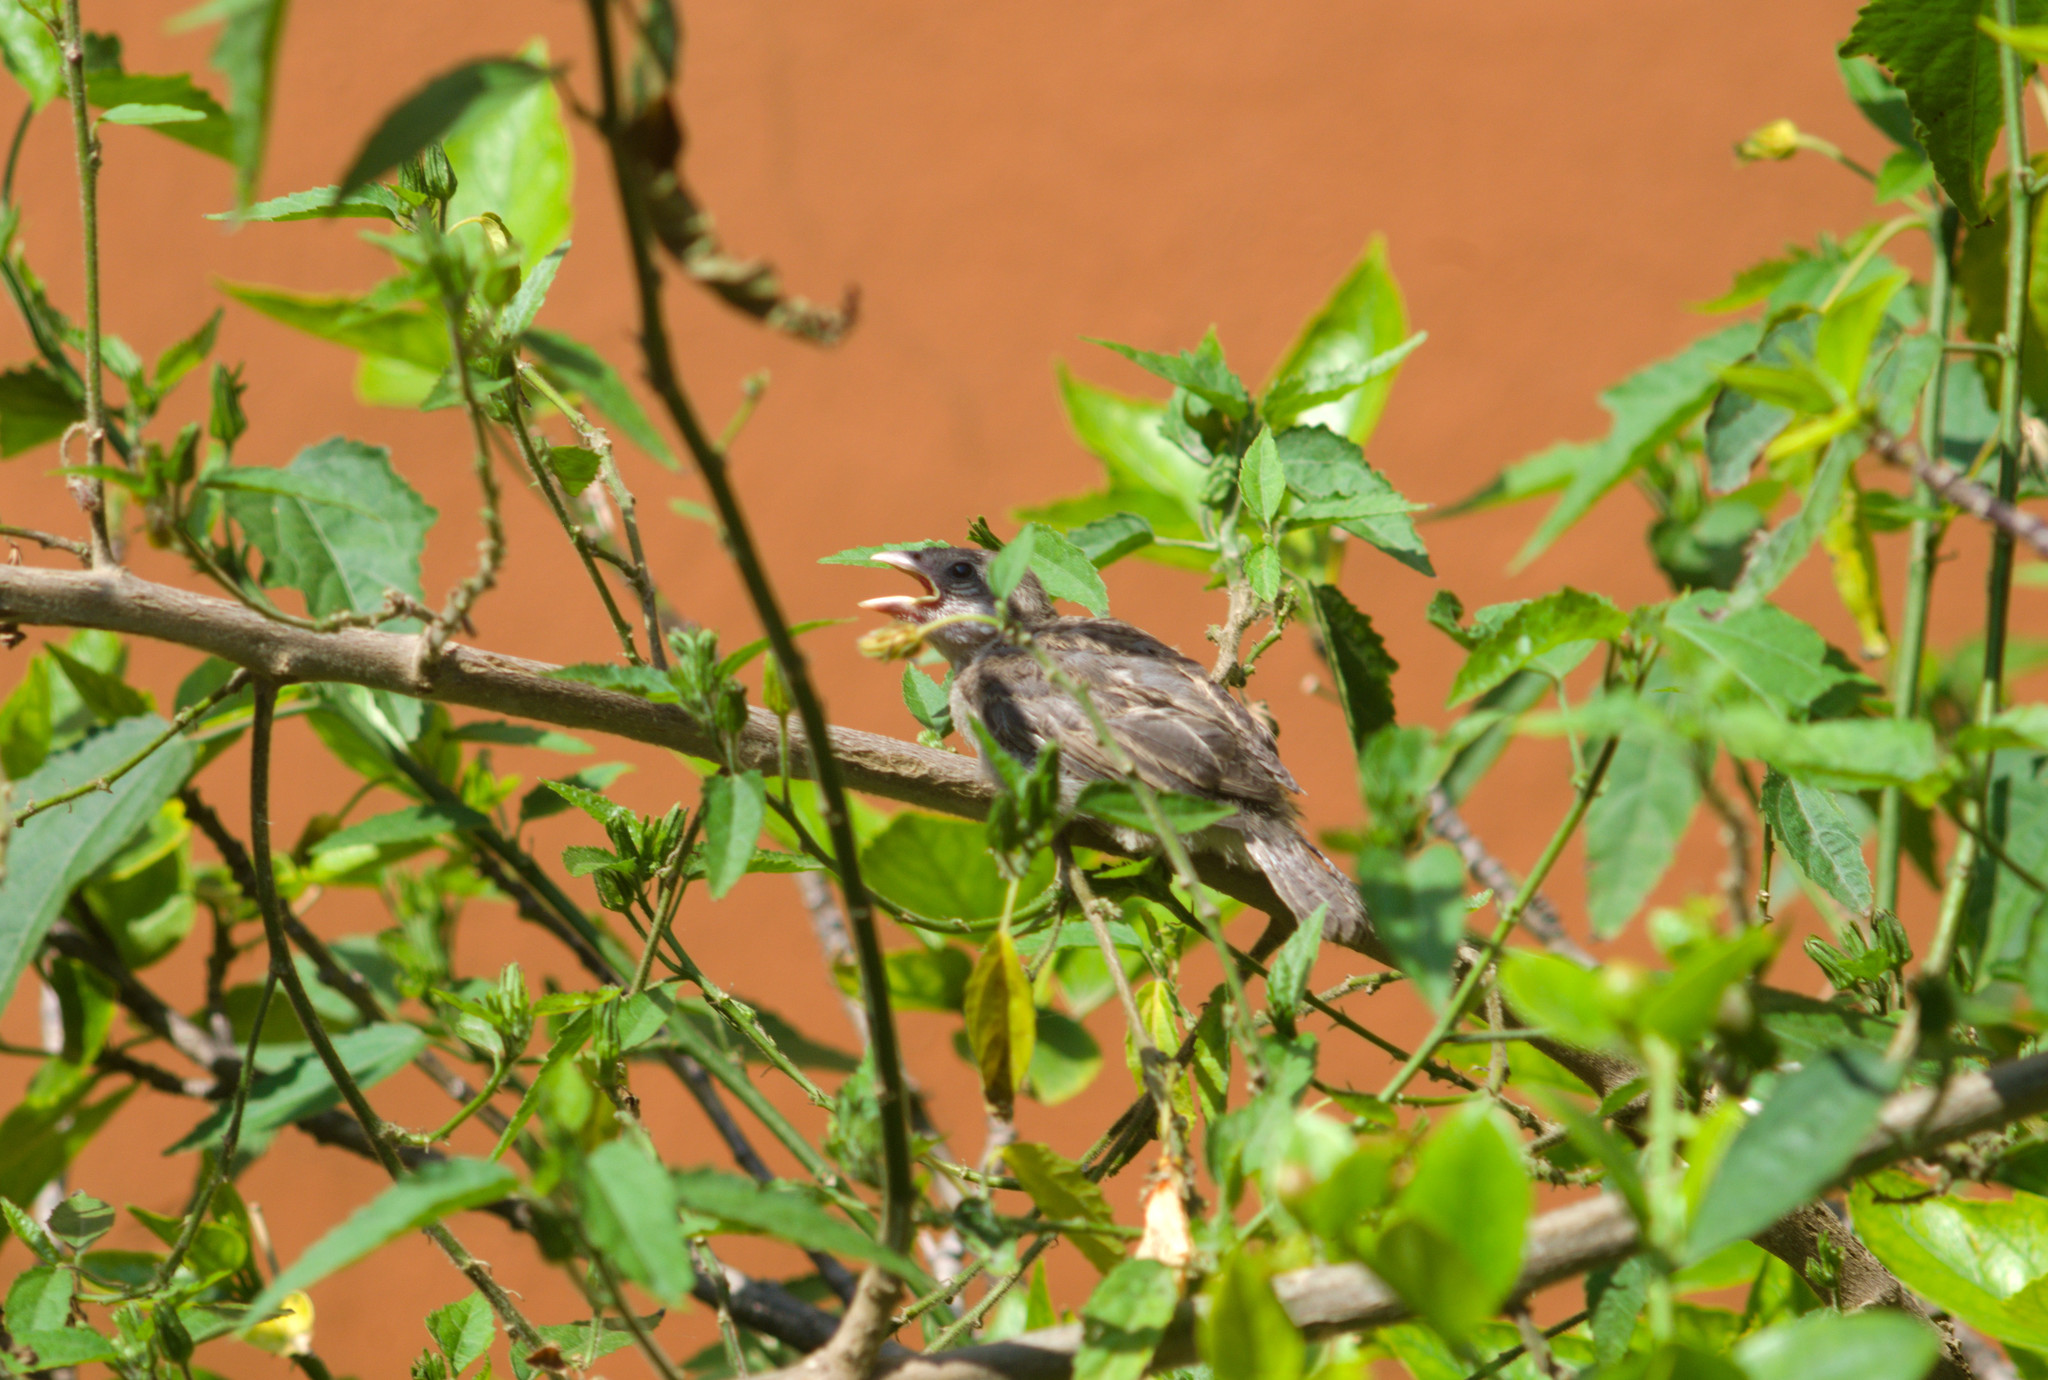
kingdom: Animalia
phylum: Chordata
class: Aves
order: Passeriformes
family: Passeridae
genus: Passer
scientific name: Passer domesticus
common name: House sparrow
